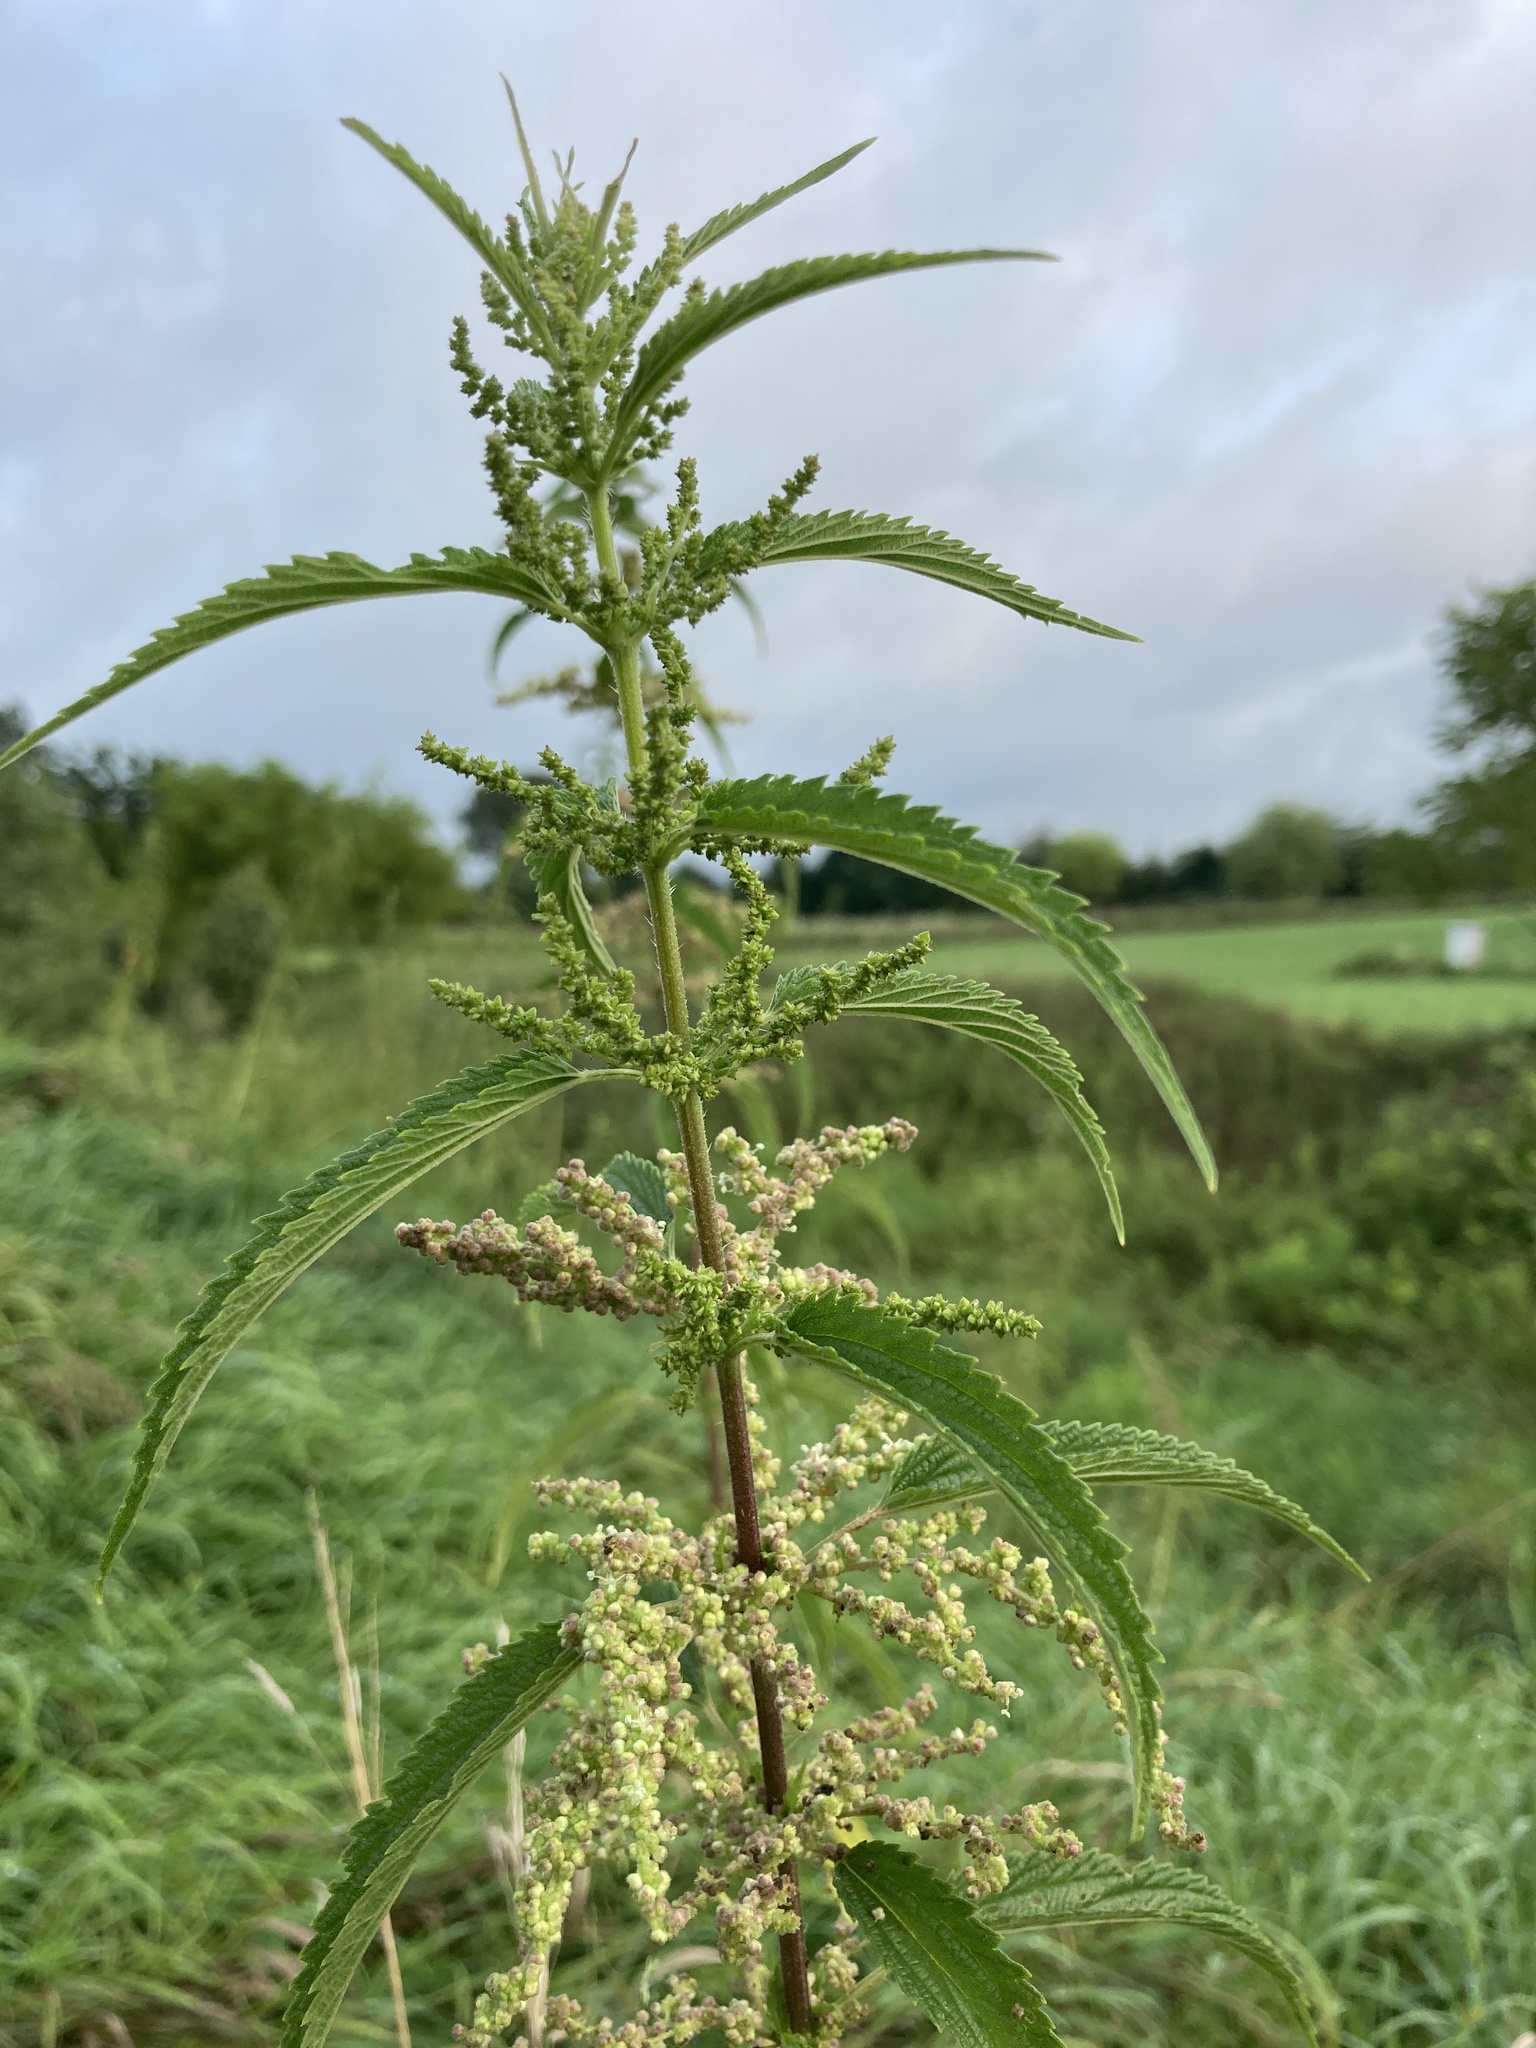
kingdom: Plantae
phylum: Tracheophyta
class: Magnoliopsida
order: Rosales
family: Urticaceae
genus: Urtica
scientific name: Urtica dioica
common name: Common nettle
